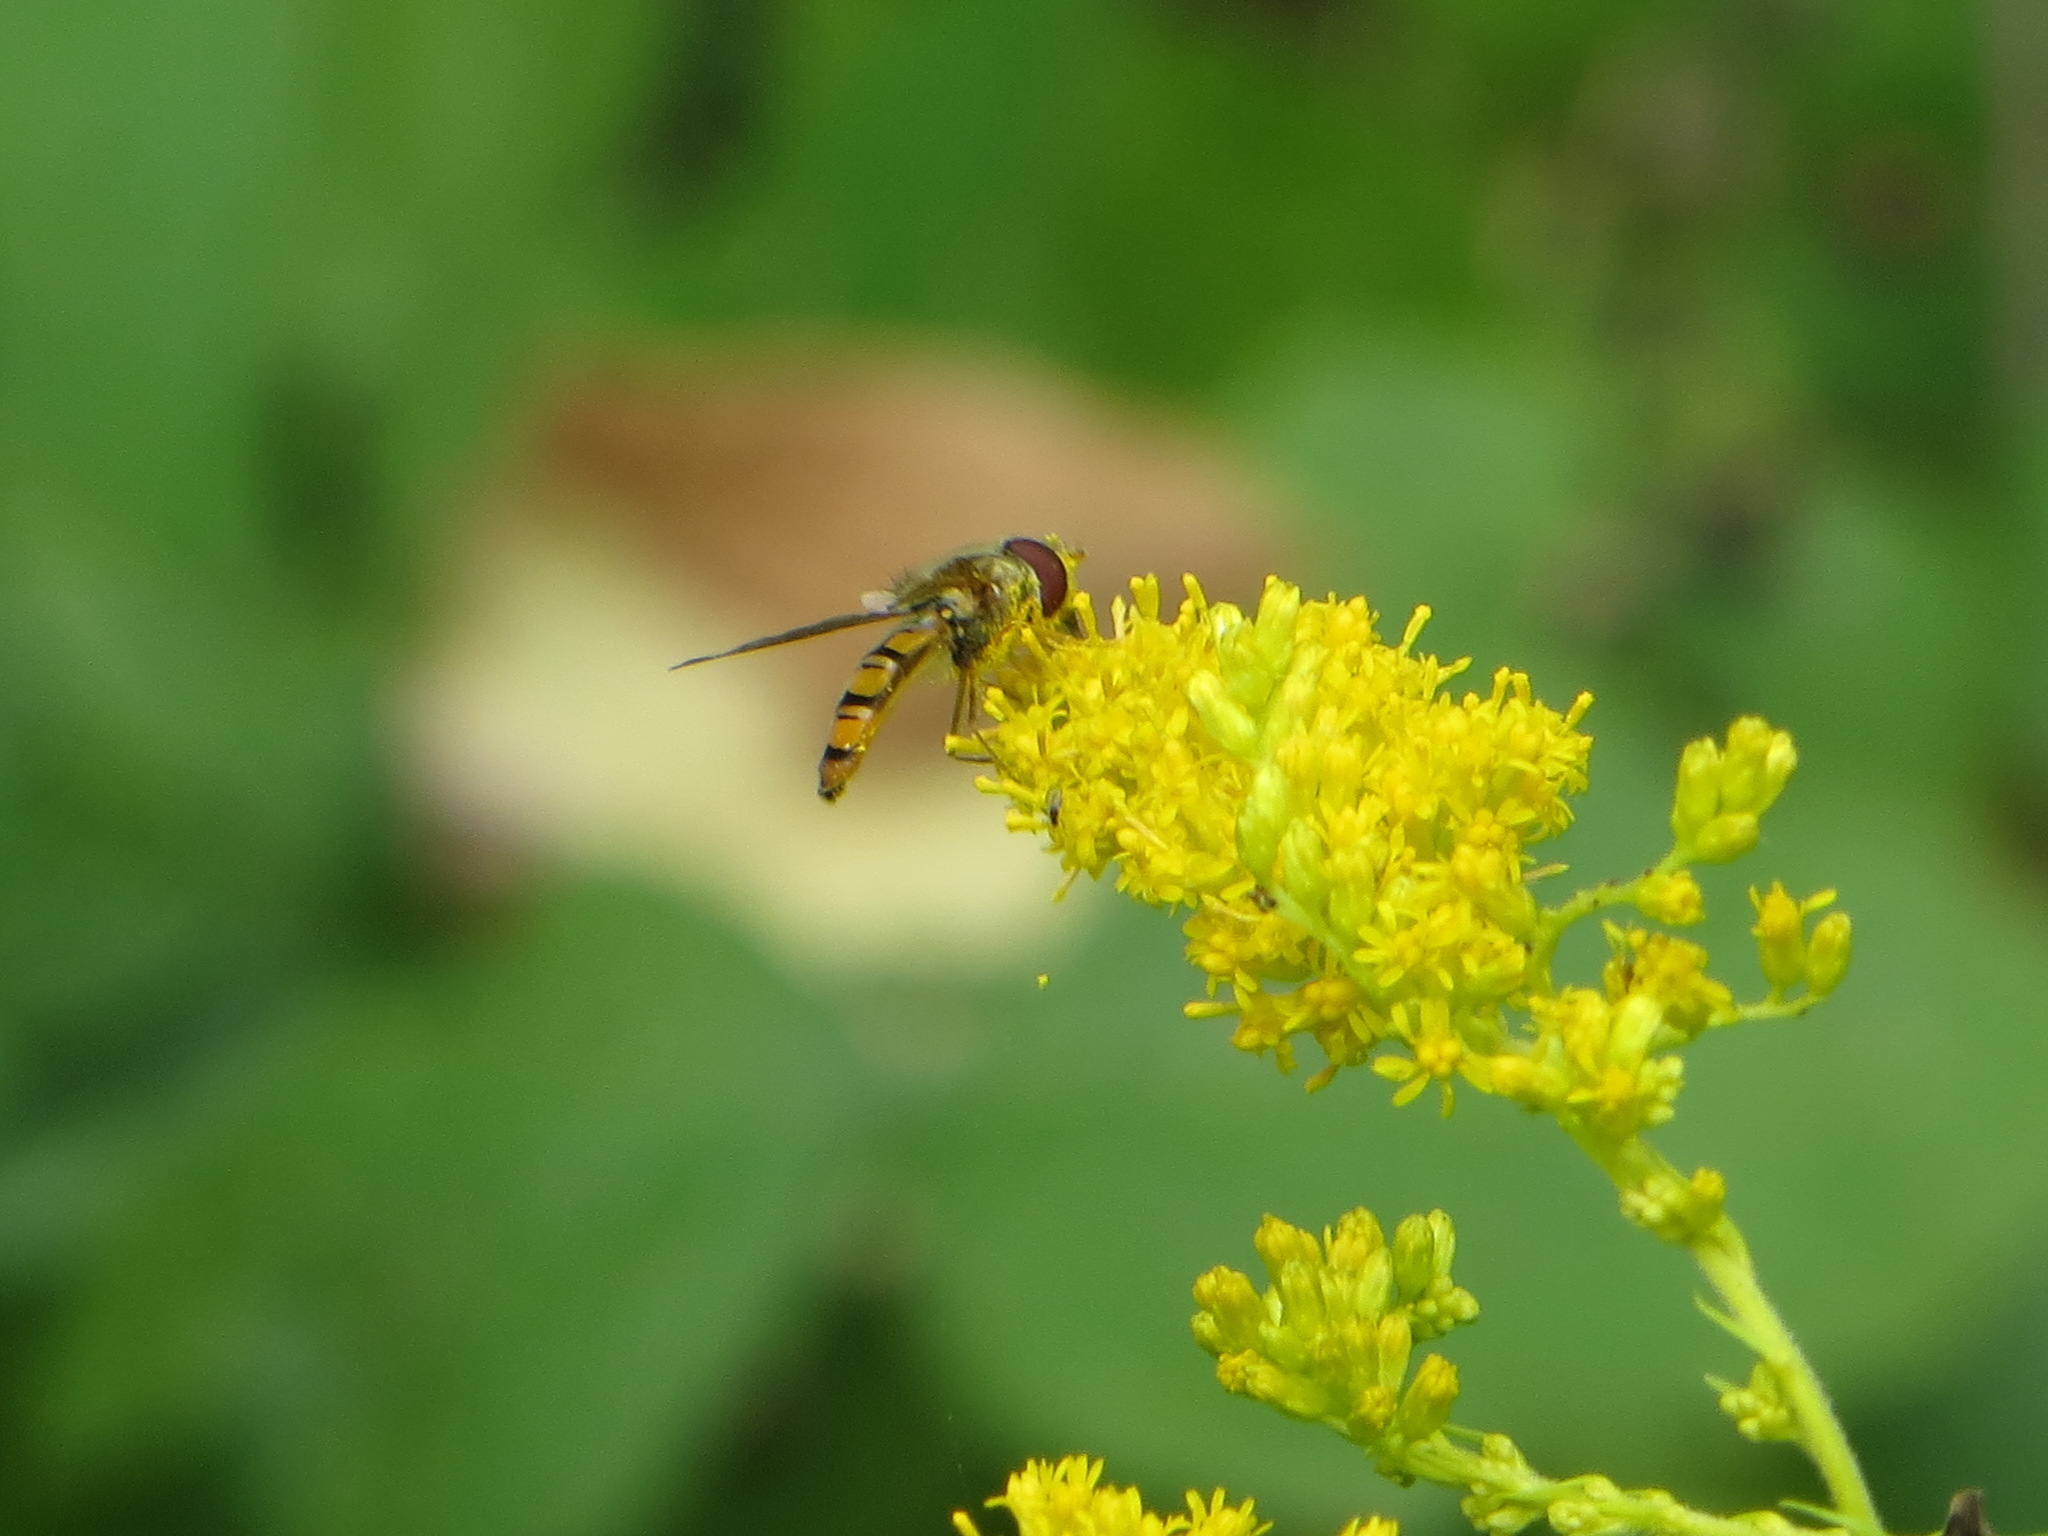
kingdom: Animalia
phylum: Arthropoda
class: Insecta
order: Diptera
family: Syrphidae
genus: Episyrphus
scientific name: Episyrphus balteatus
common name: Marmalade hoverfly
